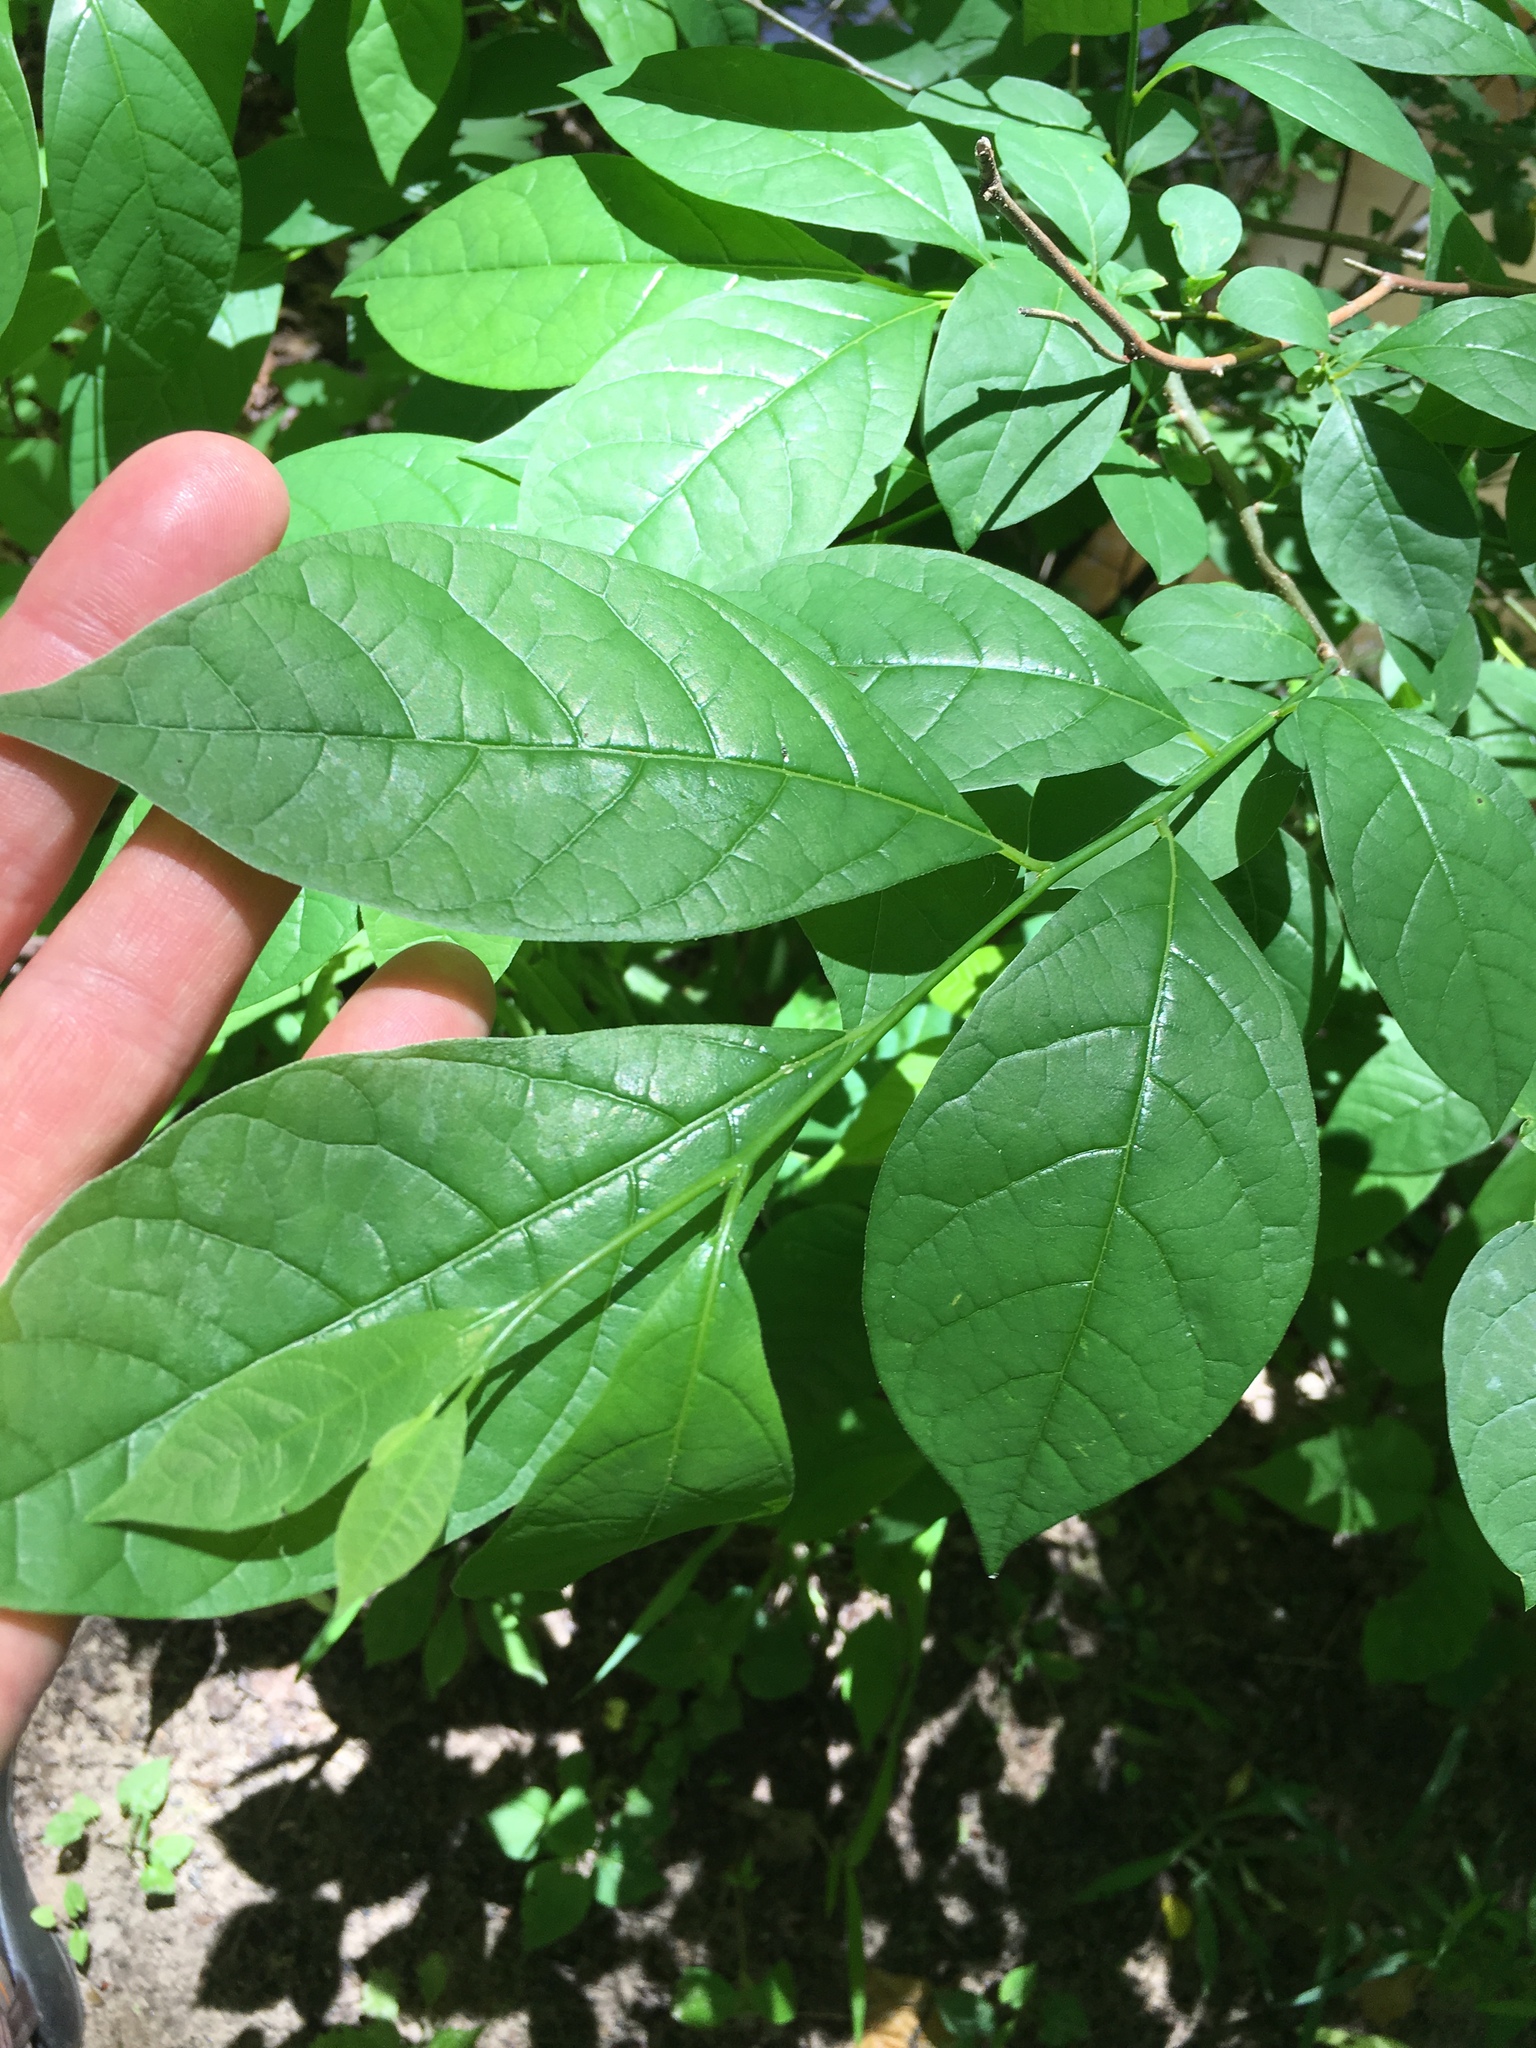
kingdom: Plantae
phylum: Tracheophyta
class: Magnoliopsida
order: Laurales
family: Lauraceae
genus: Lindera
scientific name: Lindera benzoin
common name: Spicebush
